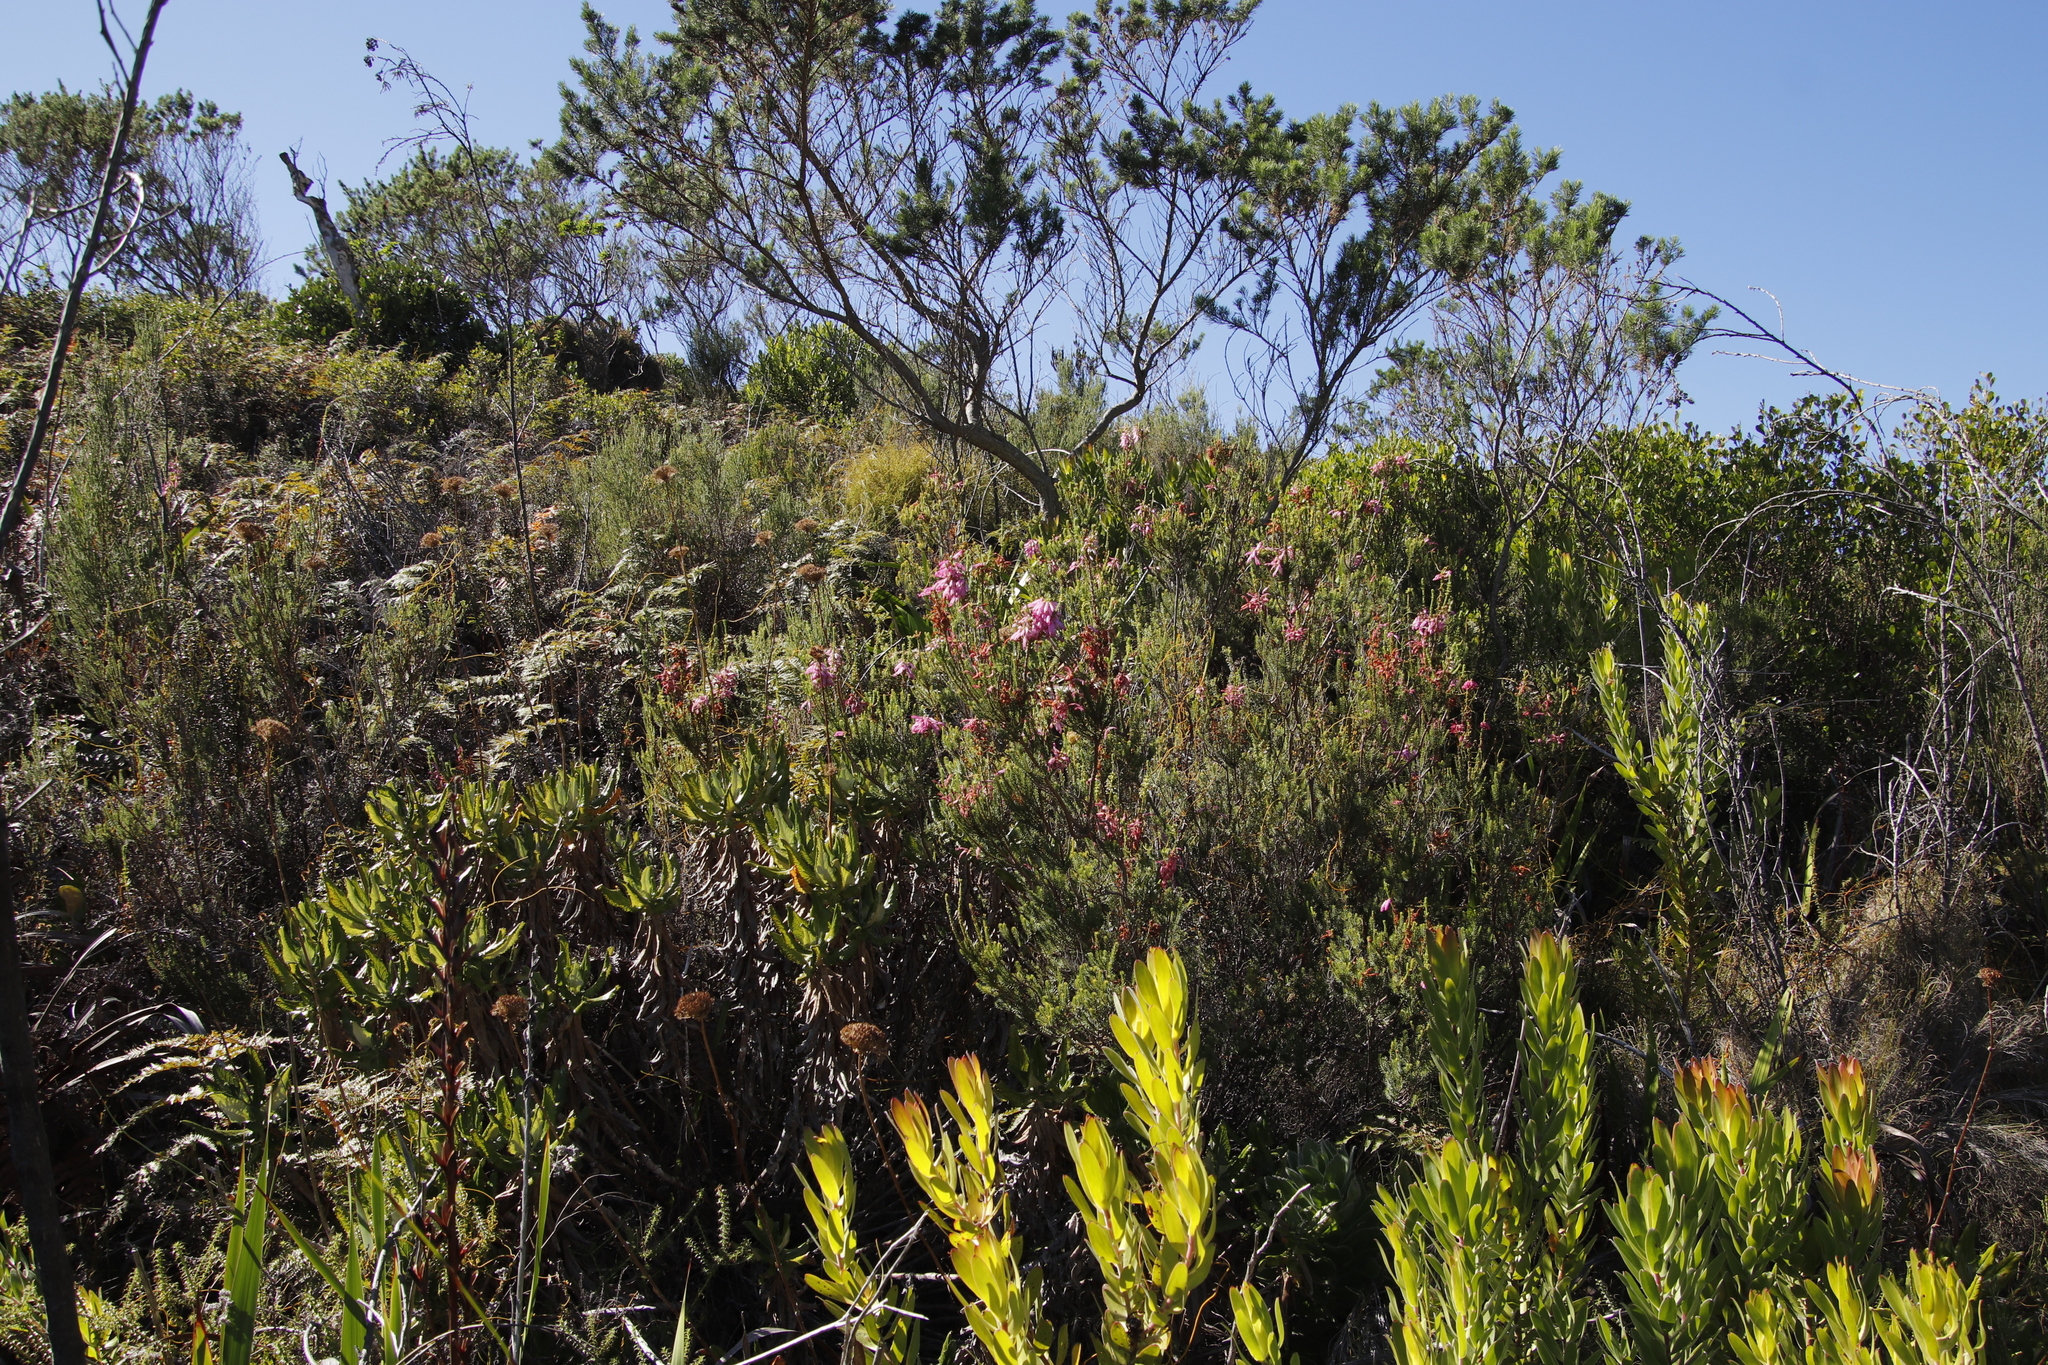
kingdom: Plantae
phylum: Tracheophyta
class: Magnoliopsida
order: Ericales
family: Ericaceae
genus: Erica
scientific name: Erica mammosa
